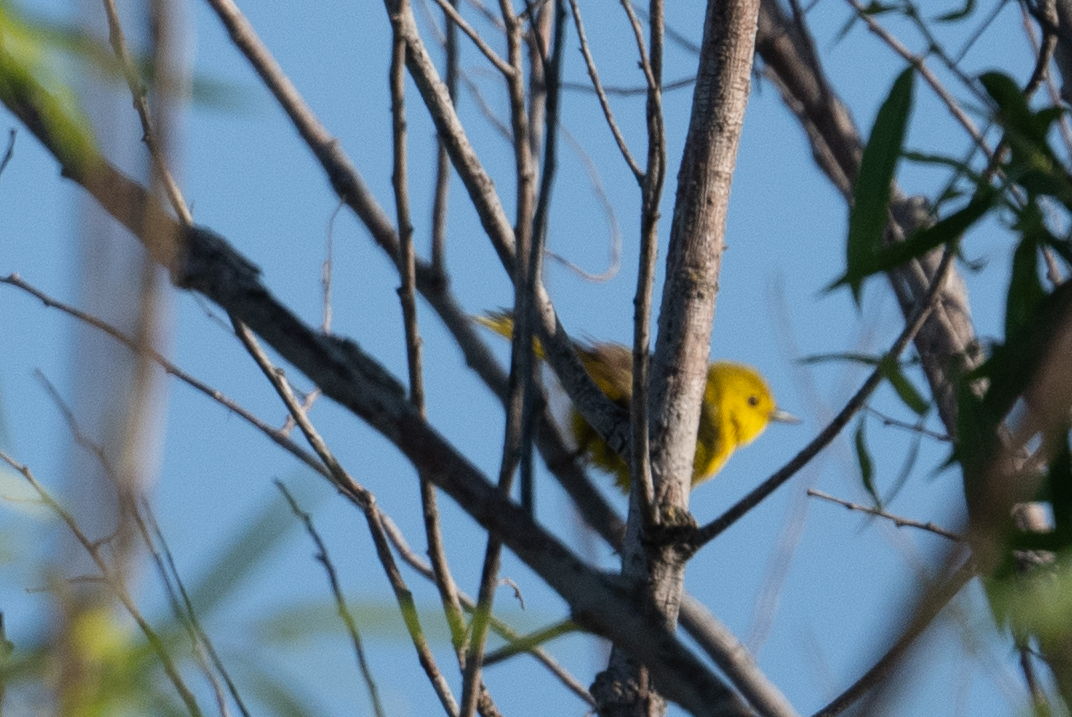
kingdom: Animalia
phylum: Chordata
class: Aves
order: Passeriformes
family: Parulidae
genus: Setophaga
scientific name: Setophaga petechia
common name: Yellow warbler
